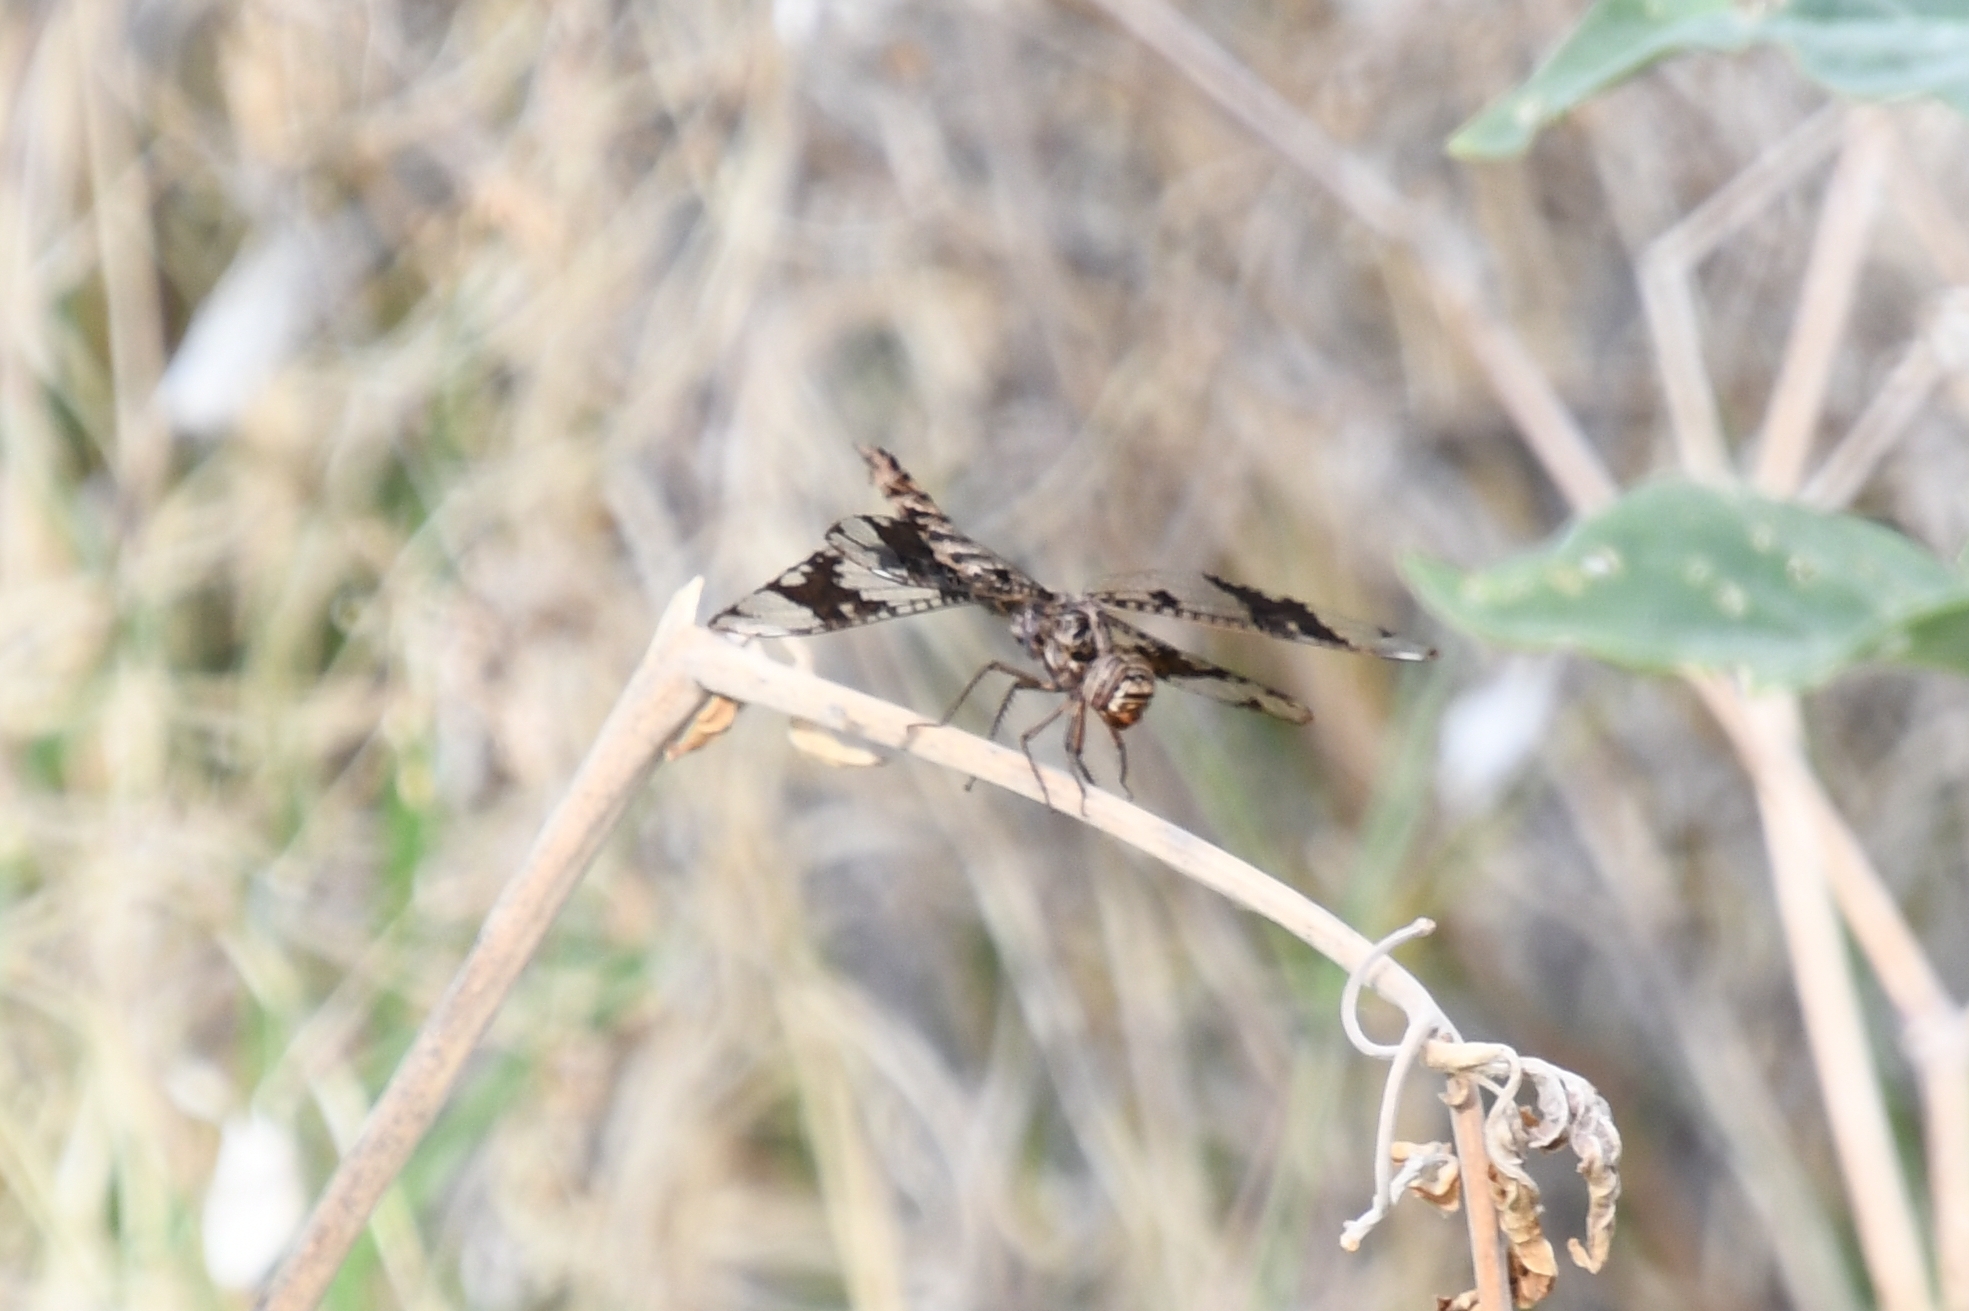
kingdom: Animalia
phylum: Arthropoda
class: Insecta
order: Odonata
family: Libellulidae
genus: Pseudoleon
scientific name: Pseudoleon superbus
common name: Filigree skimmer
